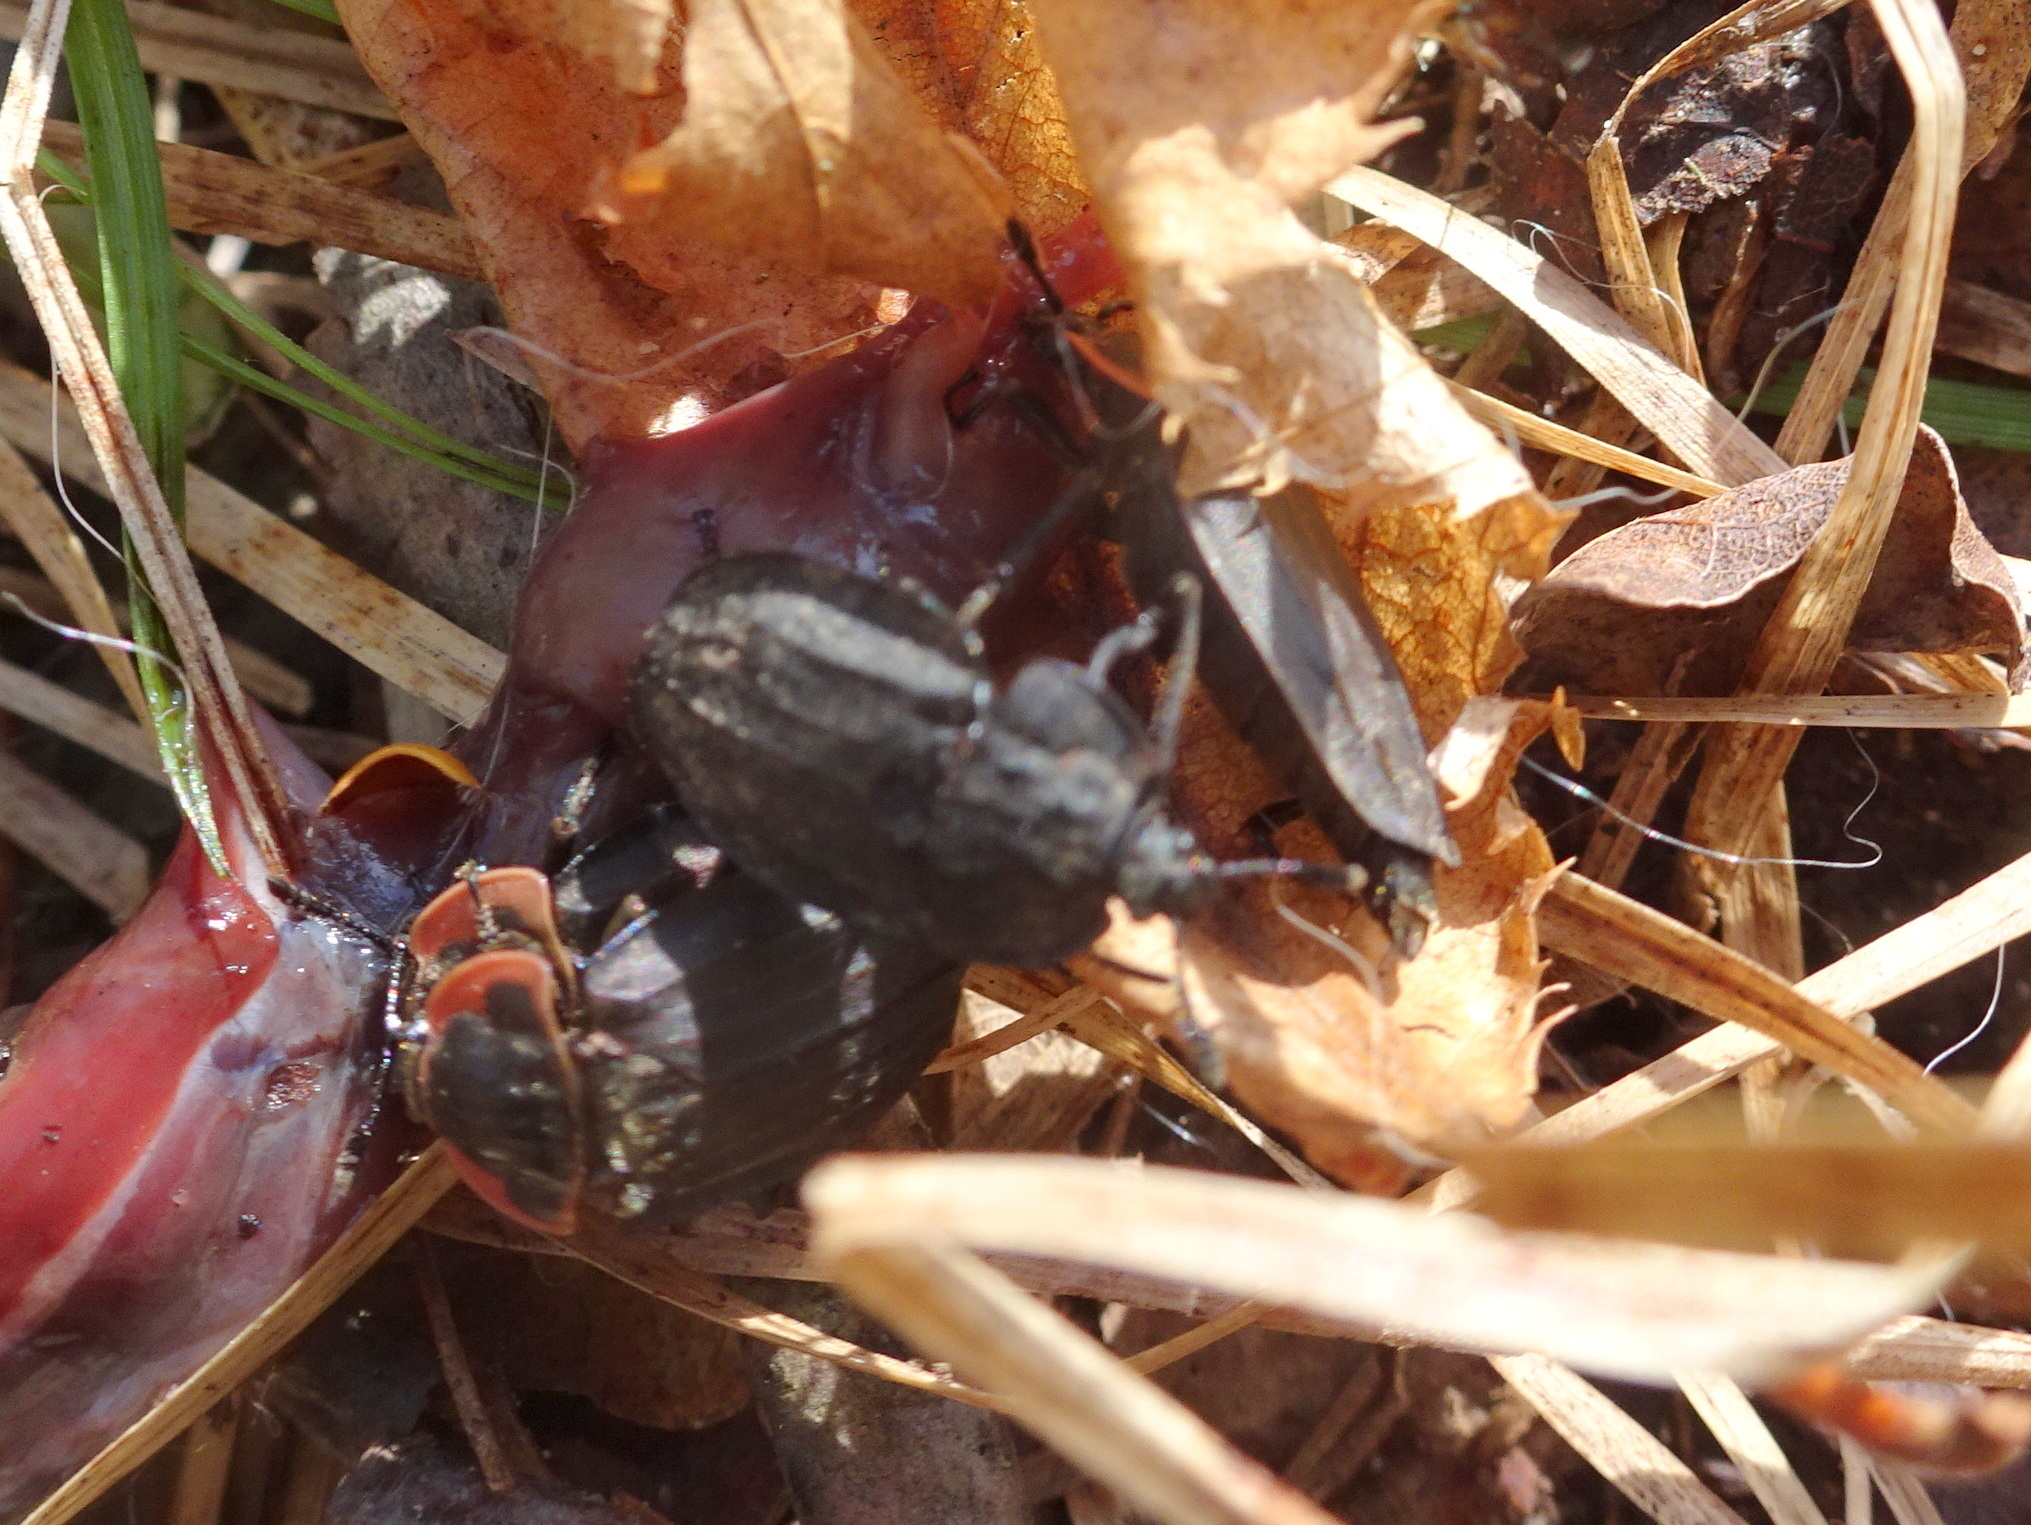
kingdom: Animalia
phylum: Arthropoda
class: Insecta
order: Coleoptera
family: Staphylinidae
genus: Oiceoptoma
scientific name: Oiceoptoma inaequale
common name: Ridged carrion beetle
